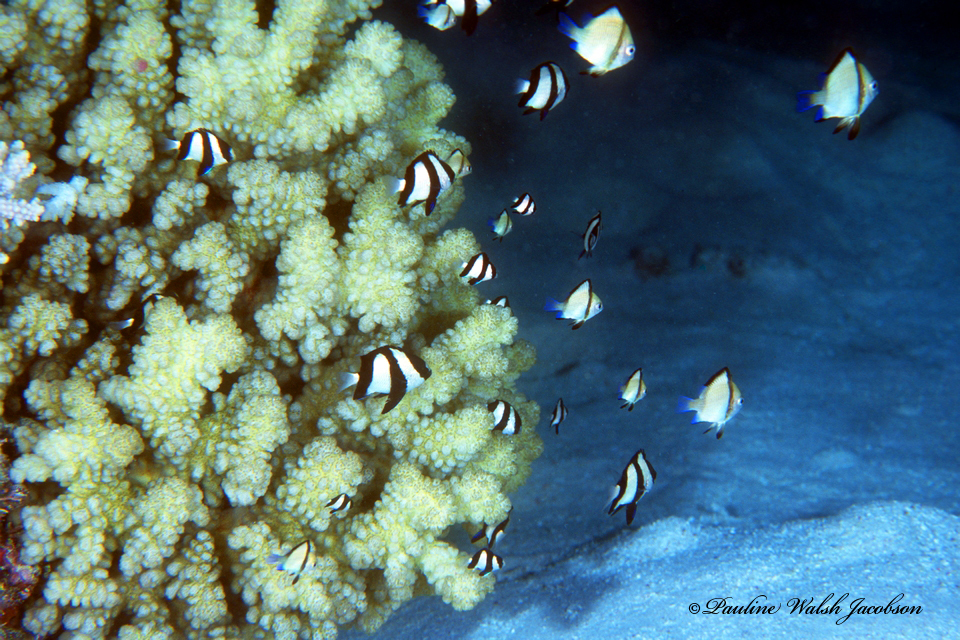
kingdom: Animalia
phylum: Chordata
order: Perciformes
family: Pomacentridae
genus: Dascyllus
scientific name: Dascyllus aruanus
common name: Humbug dascyllus
